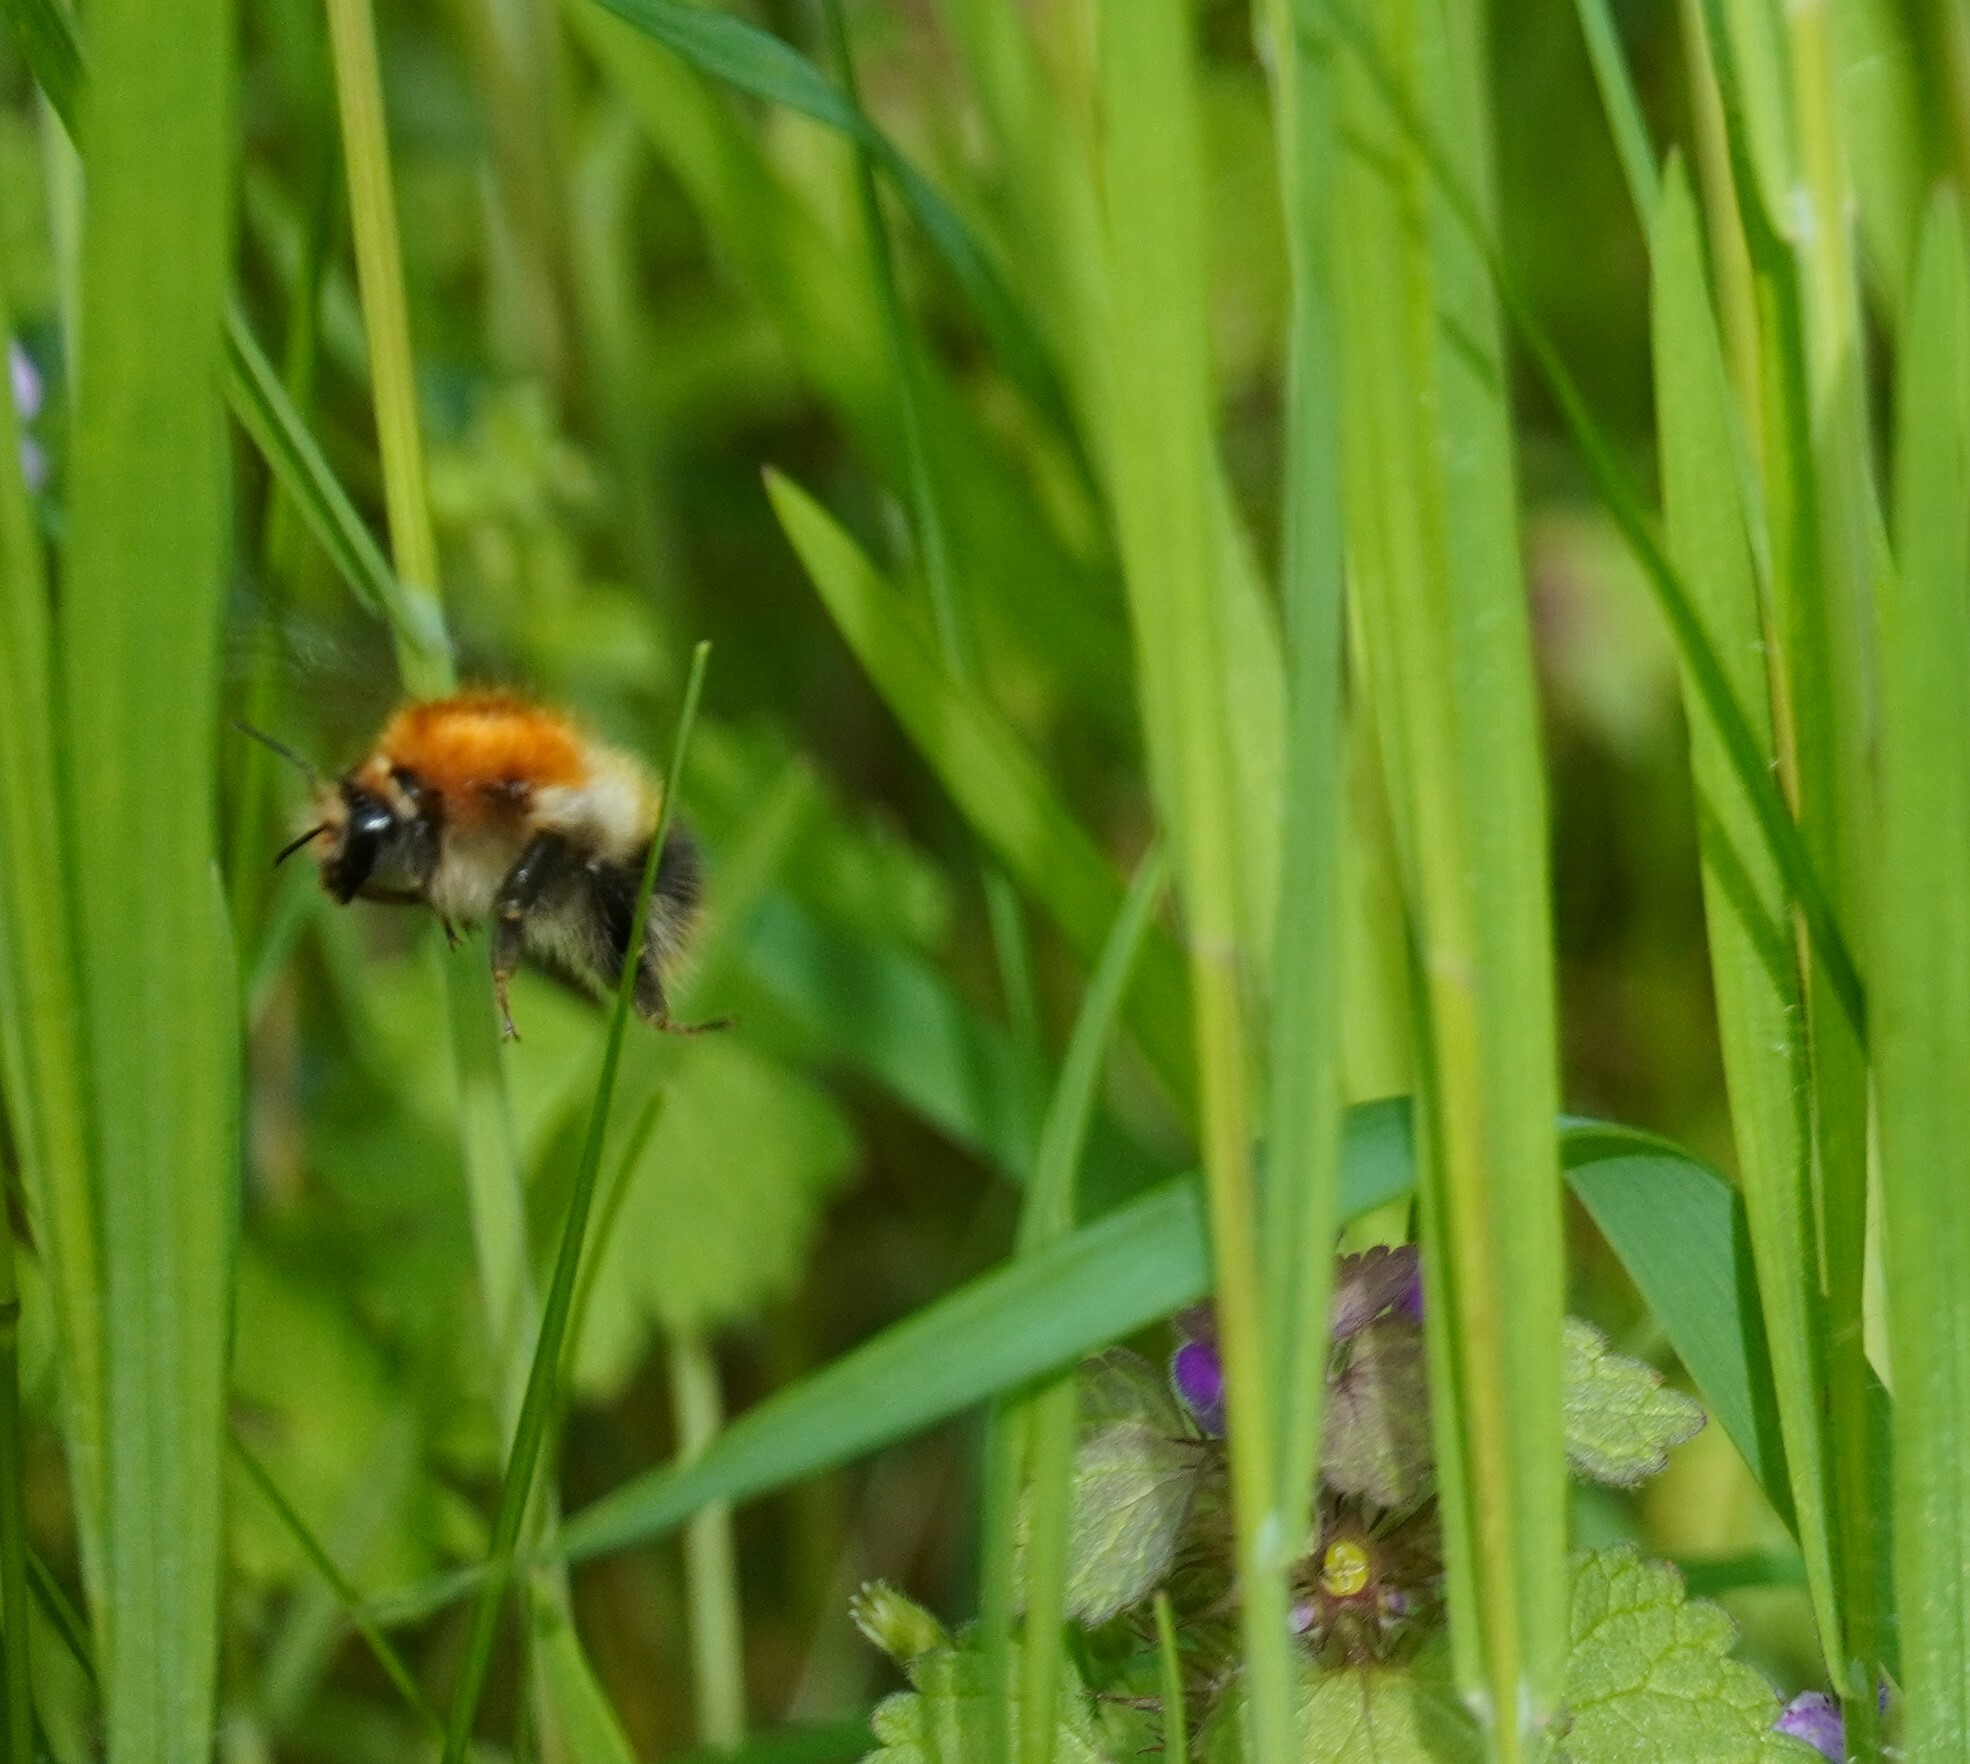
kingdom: Animalia
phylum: Arthropoda
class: Insecta
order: Hymenoptera
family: Apidae
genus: Bombus
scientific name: Bombus pascuorum
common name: Common carder bee
